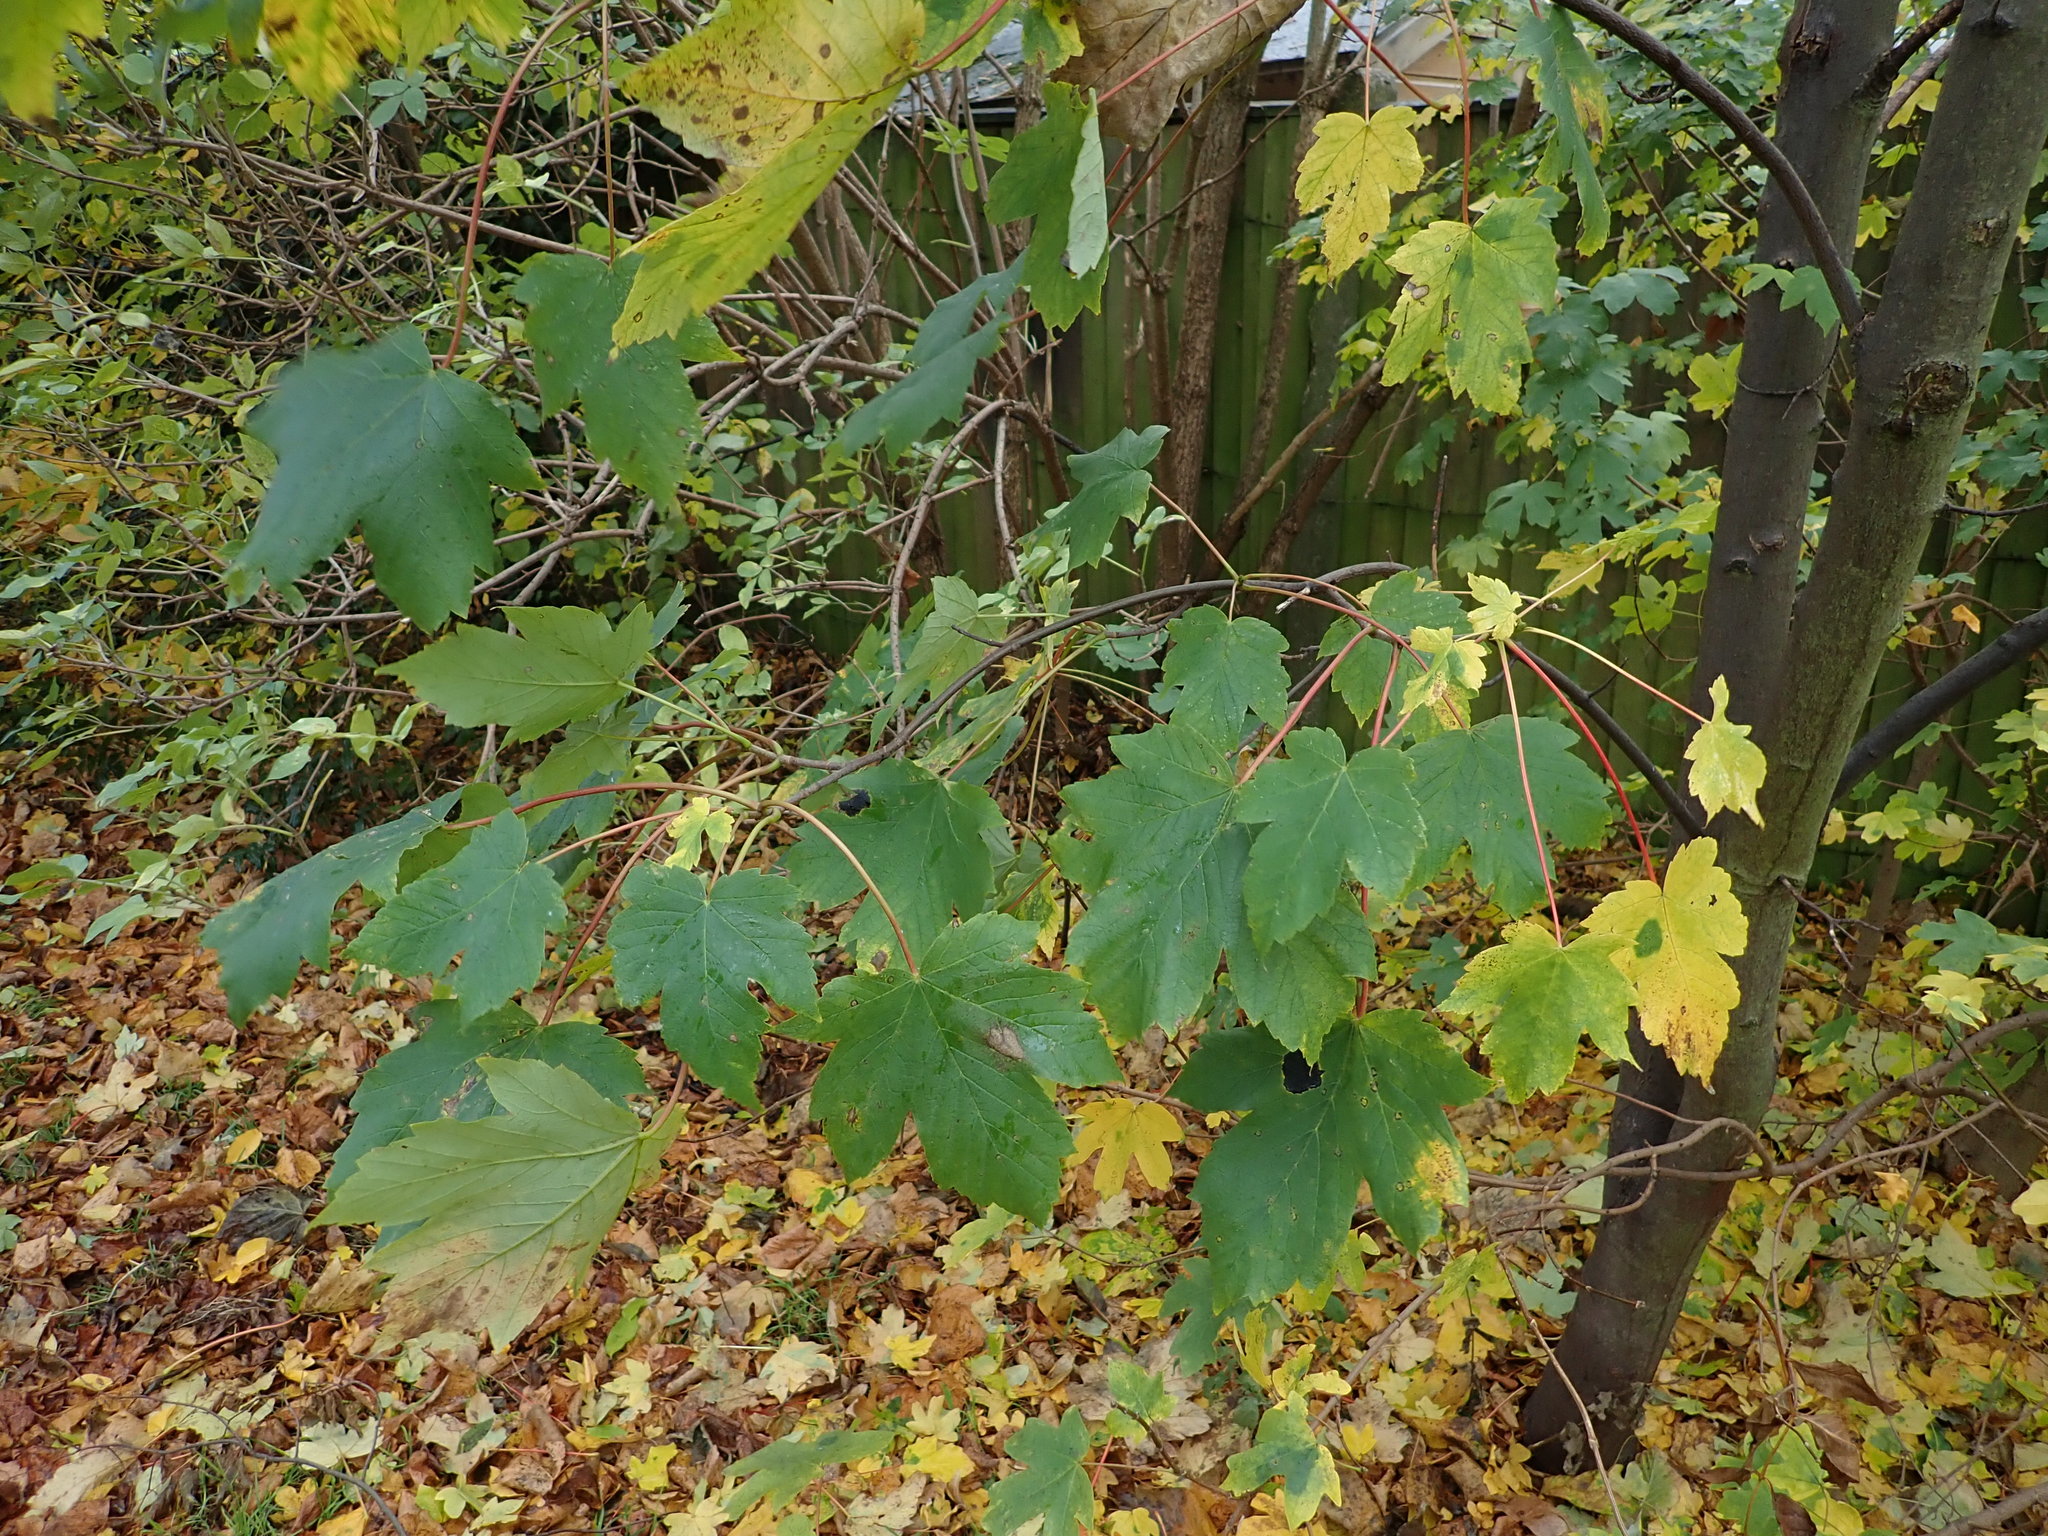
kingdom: Plantae
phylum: Tracheophyta
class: Magnoliopsida
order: Sapindales
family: Sapindaceae
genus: Acer
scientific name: Acer pseudoplatanus
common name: Sycamore
